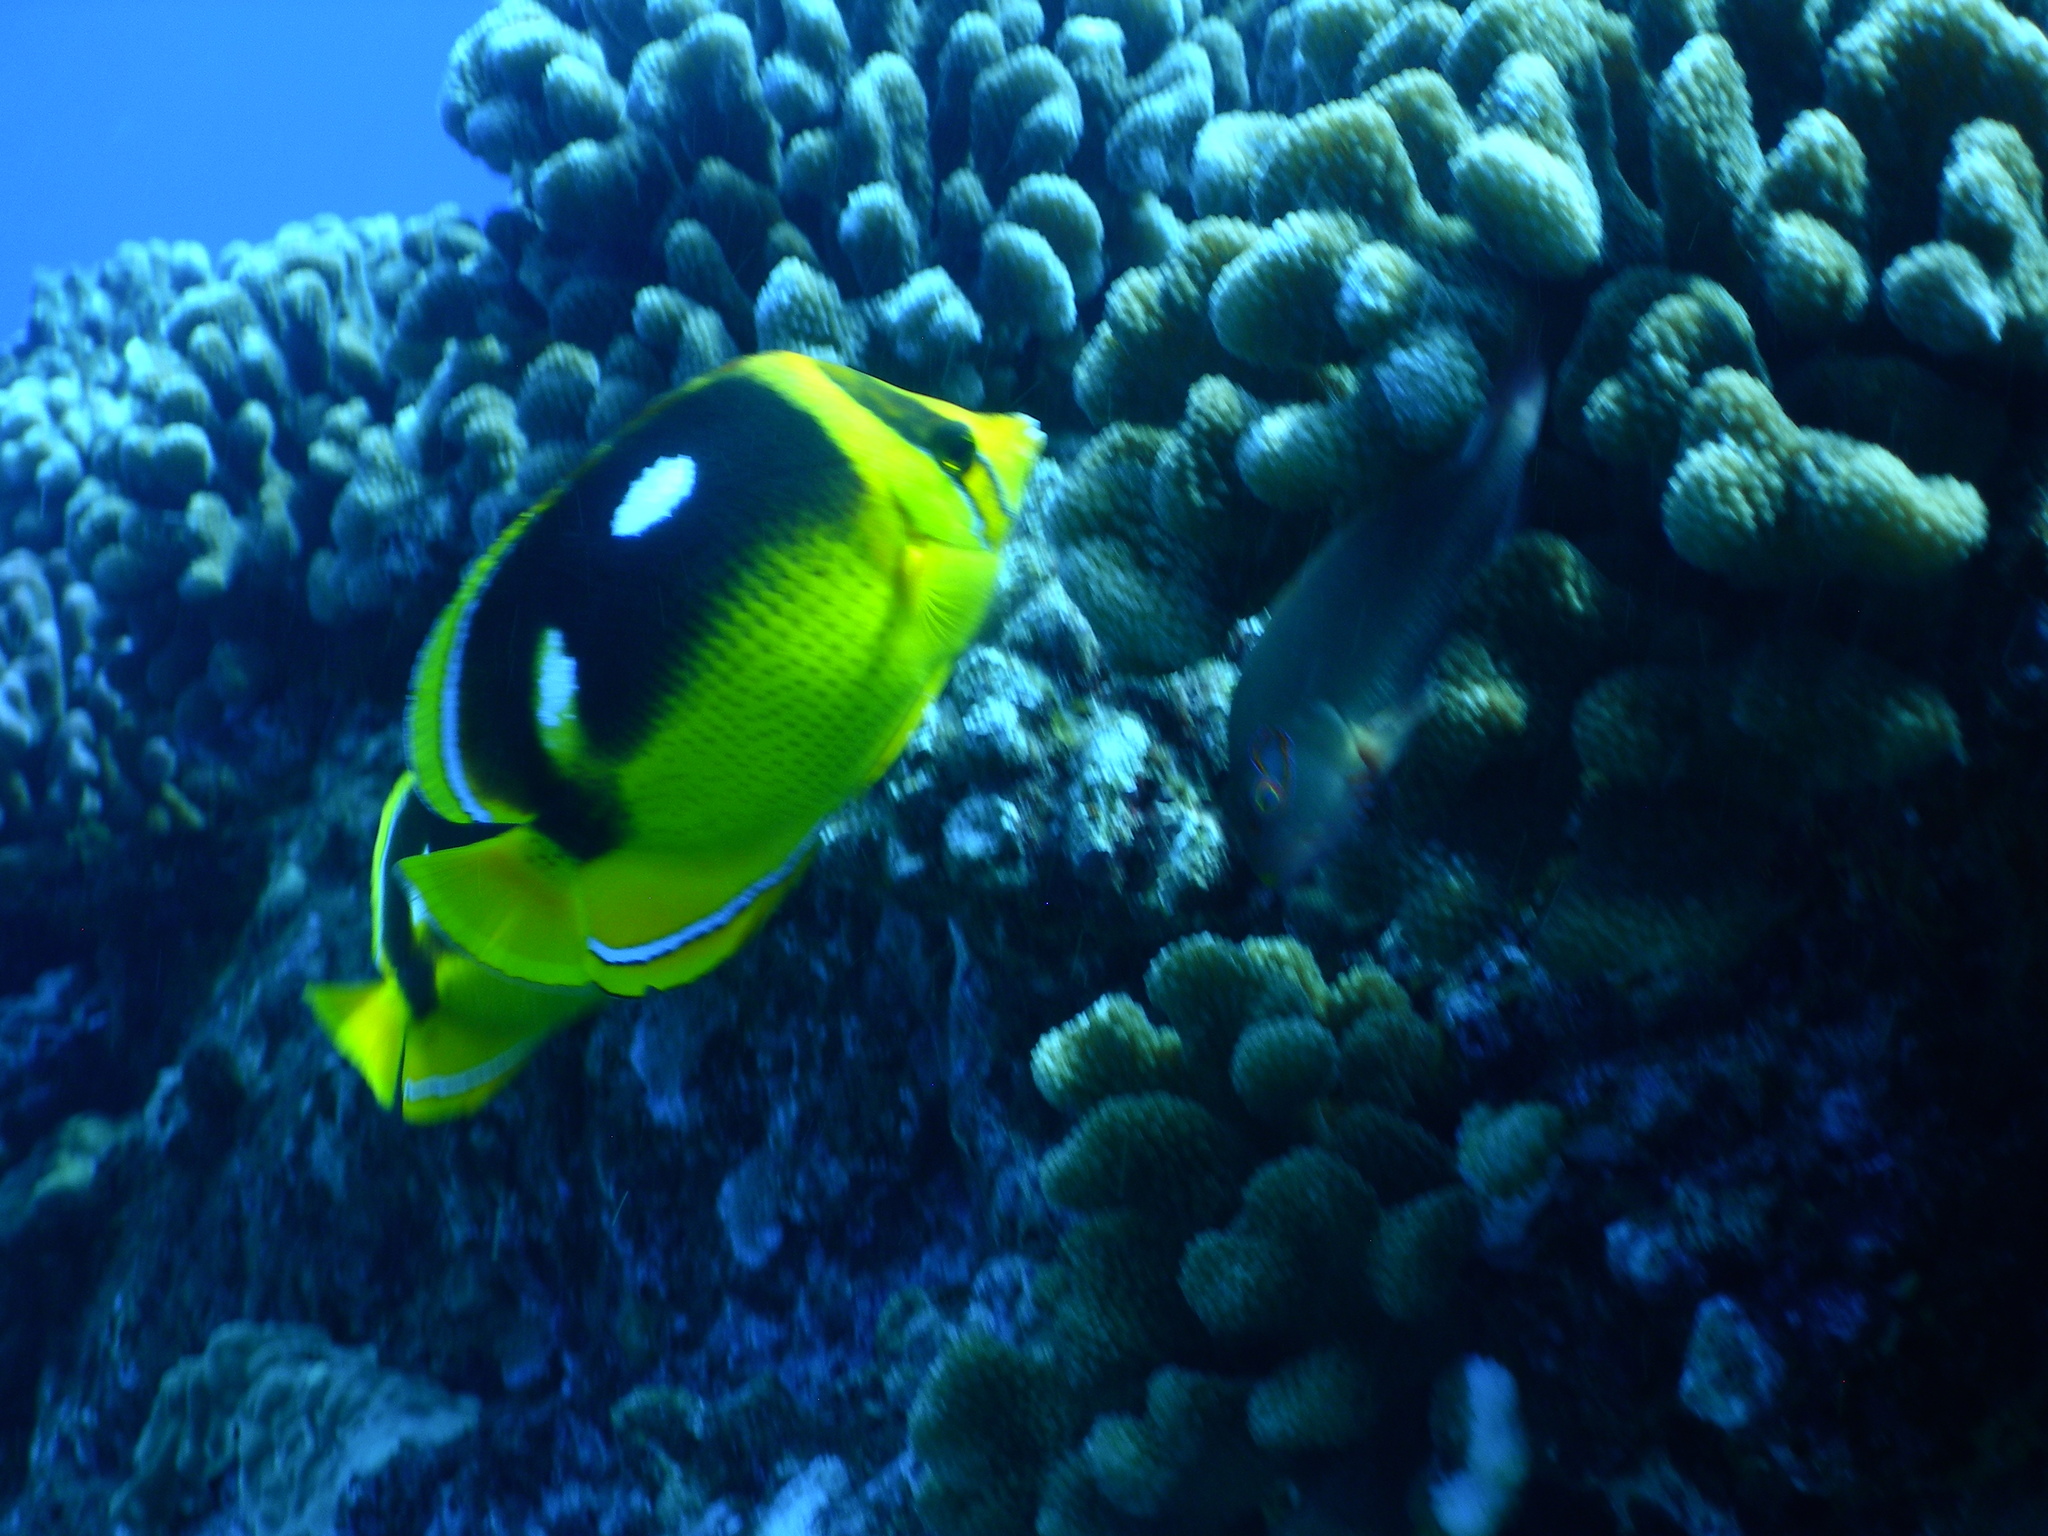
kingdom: Animalia
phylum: Chordata
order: Perciformes
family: Chaetodontidae
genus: Chaetodon
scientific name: Chaetodon quadrimaculatus
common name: Fourspot butterflyfish
